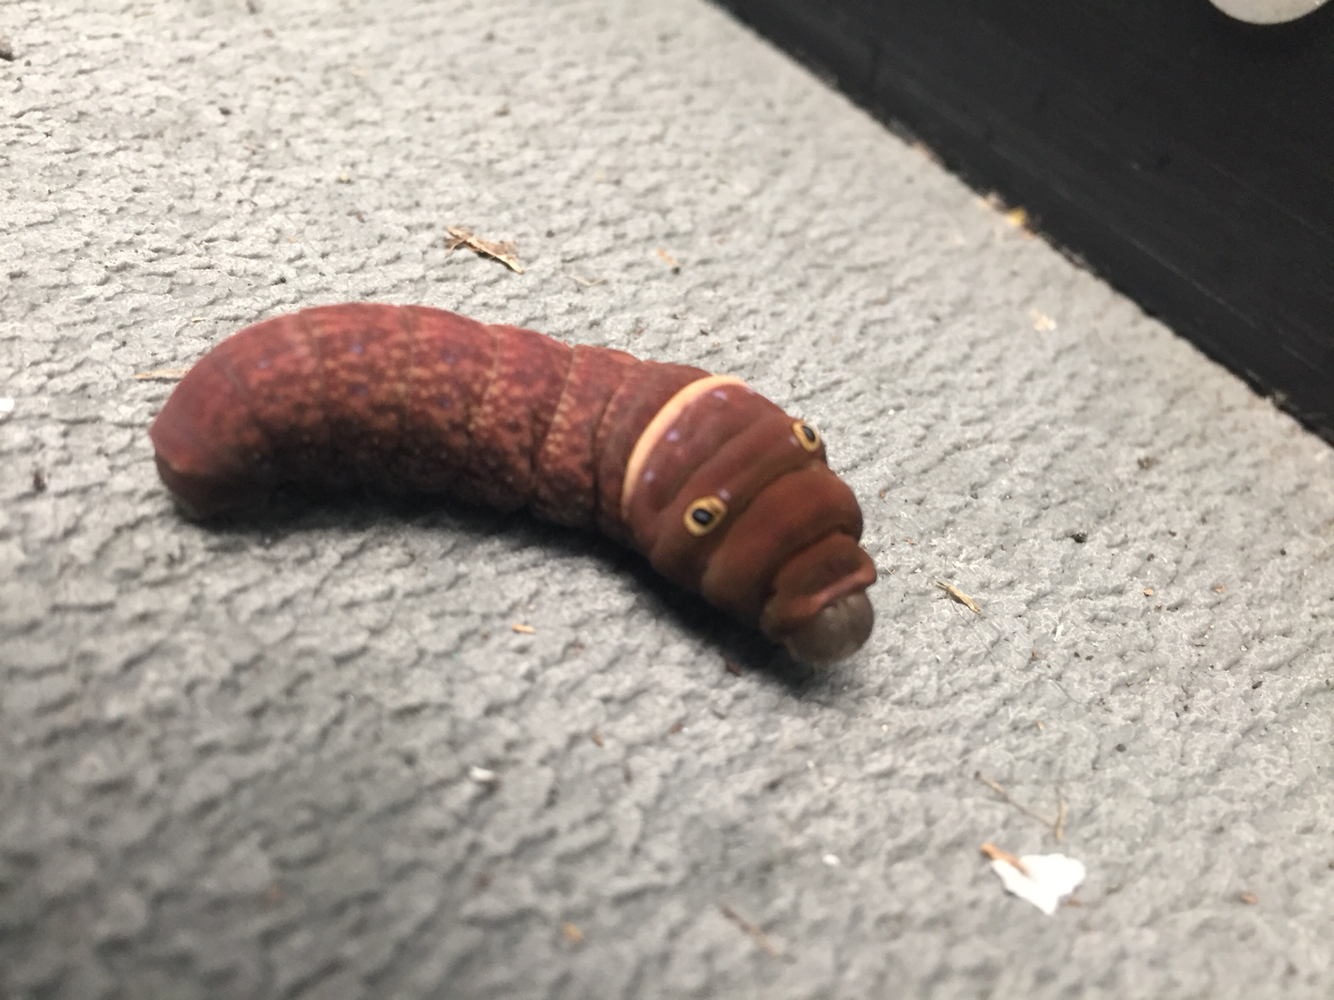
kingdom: Animalia
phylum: Arthropoda
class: Insecta
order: Lepidoptera
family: Papilionidae
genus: Papilio
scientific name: Papilio glaucus
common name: Tiger swallowtail
